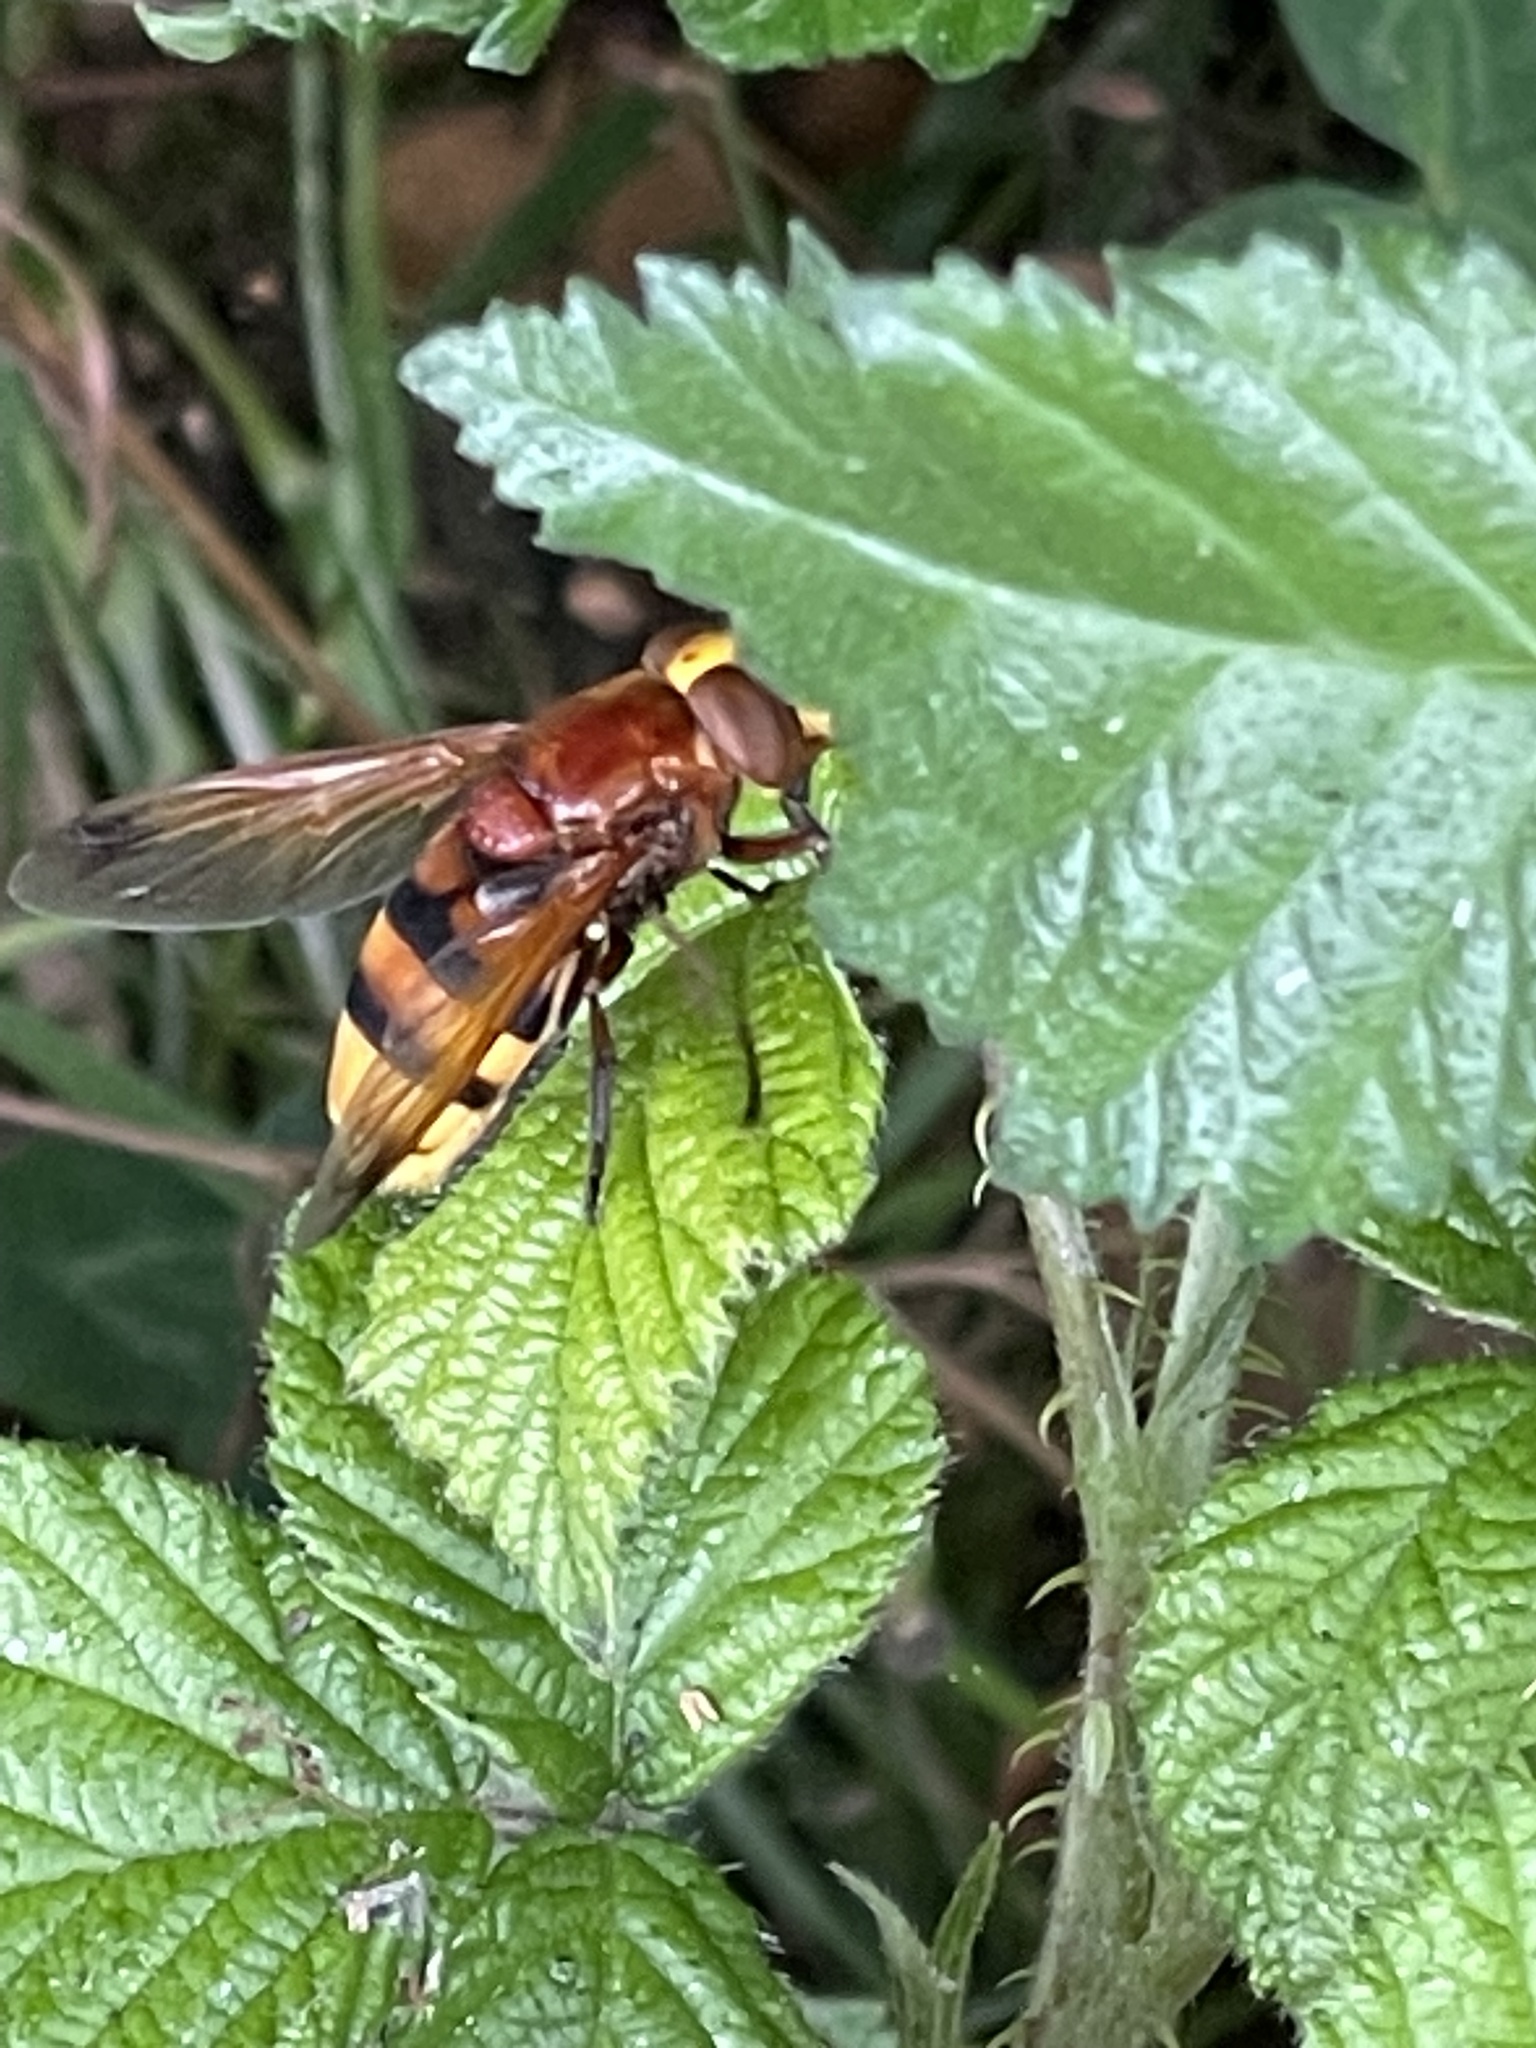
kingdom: Animalia
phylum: Arthropoda
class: Insecta
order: Diptera
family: Syrphidae
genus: Volucella
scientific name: Volucella zonaria
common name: Hornet hoverfly
